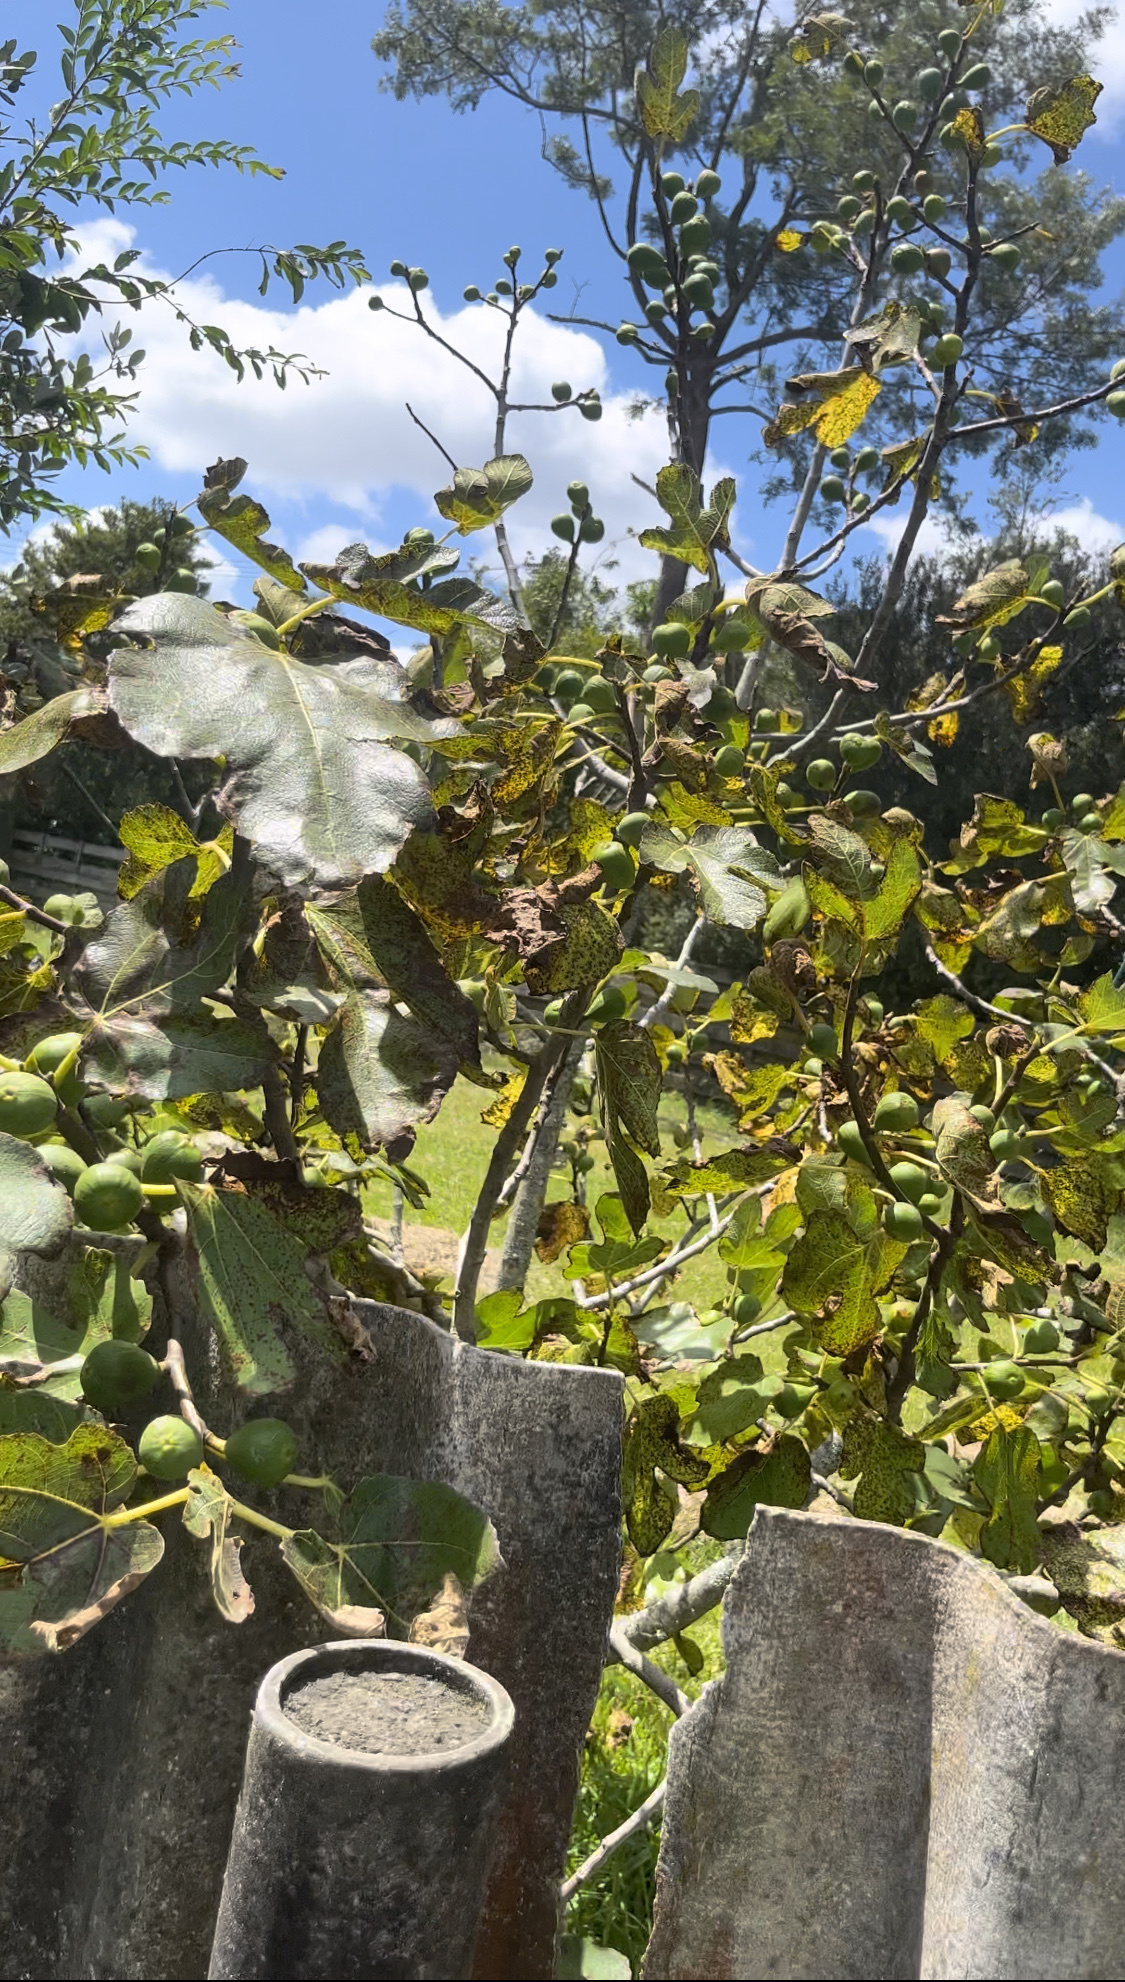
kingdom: Plantae
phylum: Tracheophyta
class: Magnoliopsida
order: Rosales
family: Moraceae
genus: Ficus
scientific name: Ficus carica
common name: Fig
